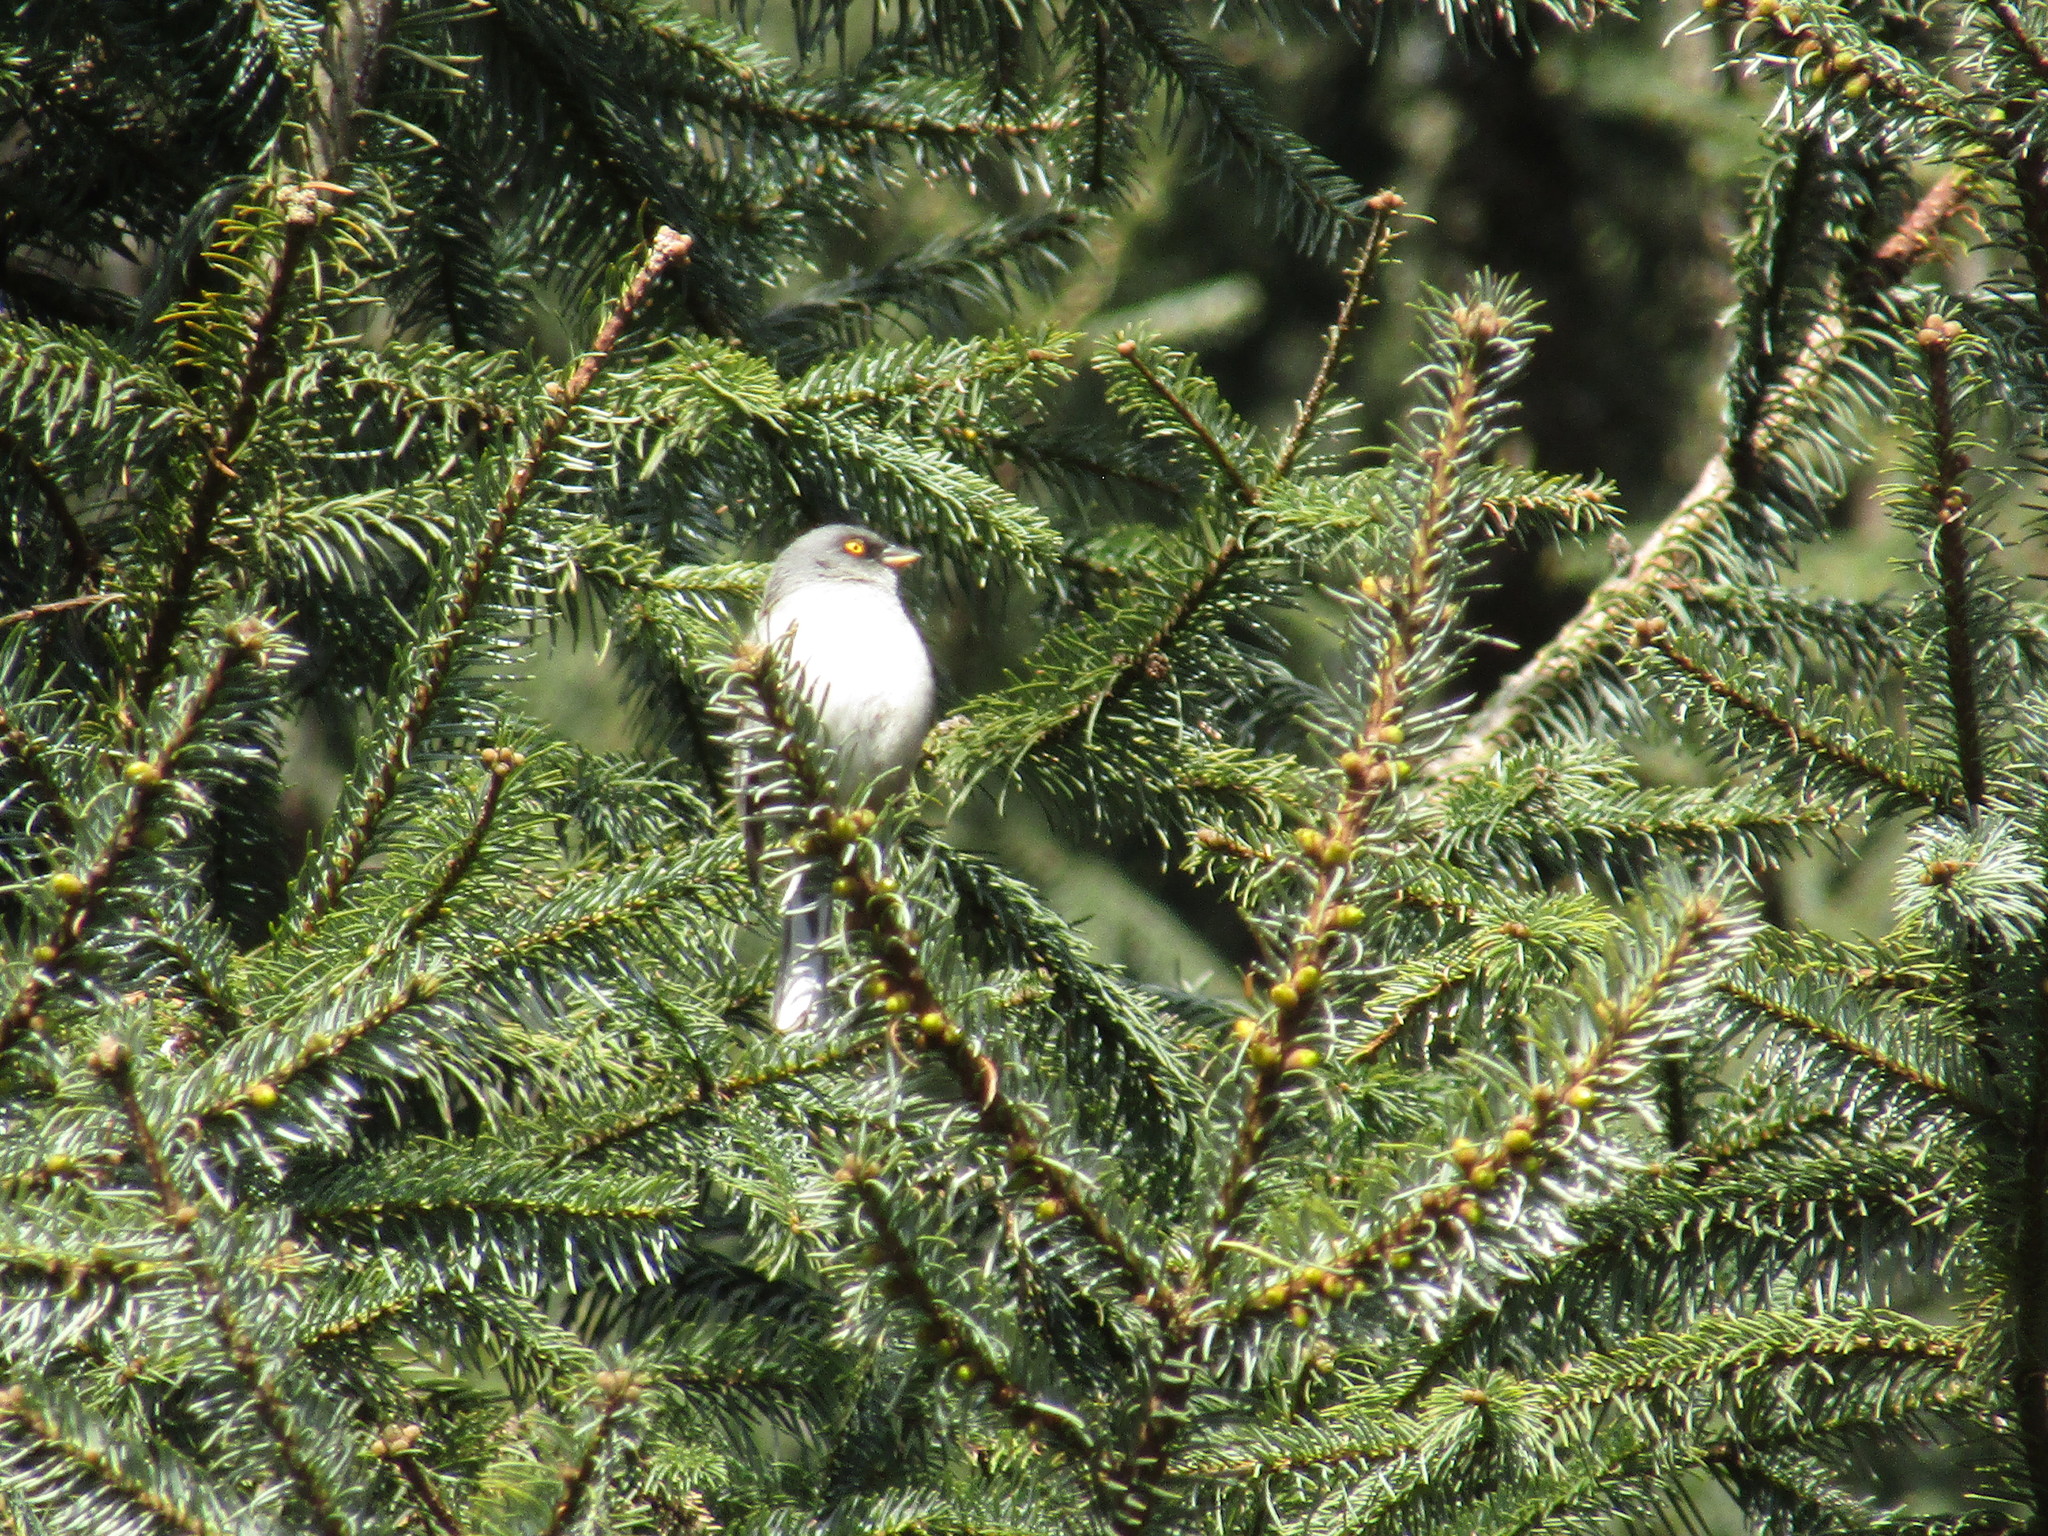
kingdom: Animalia
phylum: Chordata
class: Aves
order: Passeriformes
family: Passerellidae
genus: Junco
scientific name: Junco phaeonotus
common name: Yellow-eyed junco
